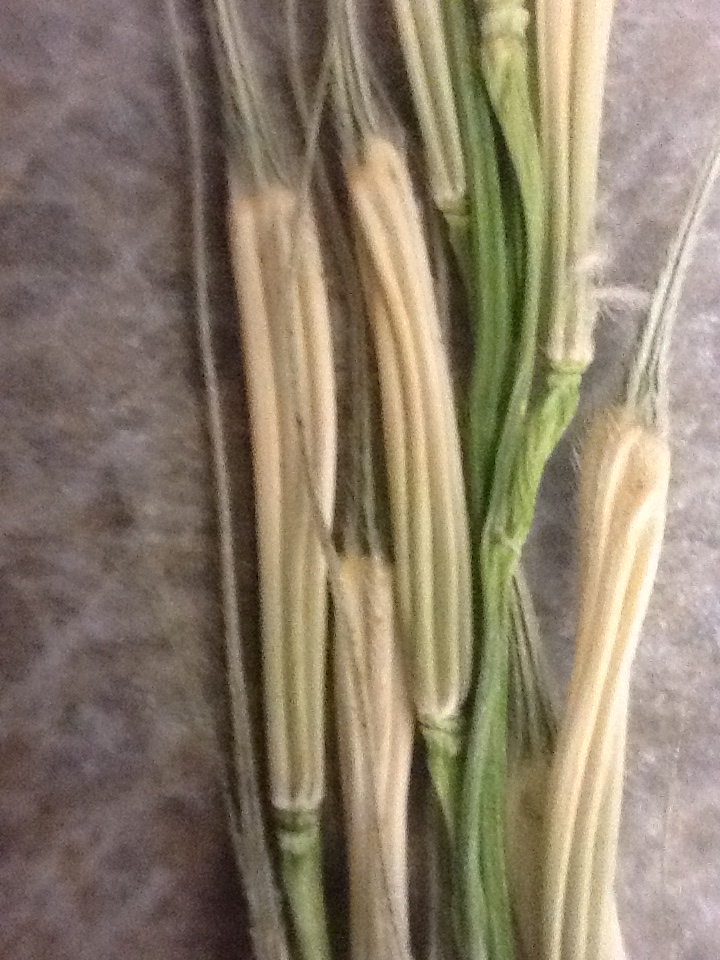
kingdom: Plantae
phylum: Tracheophyta
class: Liliopsida
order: Poales
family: Poaceae
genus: Zizania
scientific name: Zizania palustris
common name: Northern wild rice
